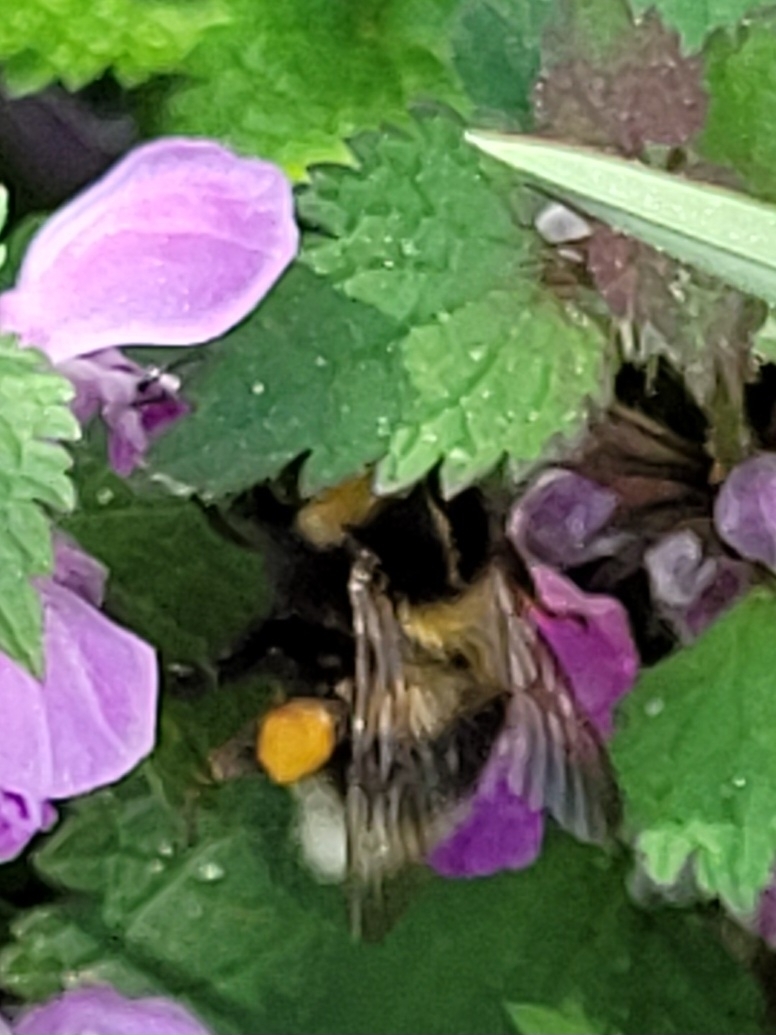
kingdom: Animalia
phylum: Arthropoda
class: Insecta
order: Hymenoptera
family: Apidae
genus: Bombus
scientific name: Bombus hortorum
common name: Garden bumblebee
